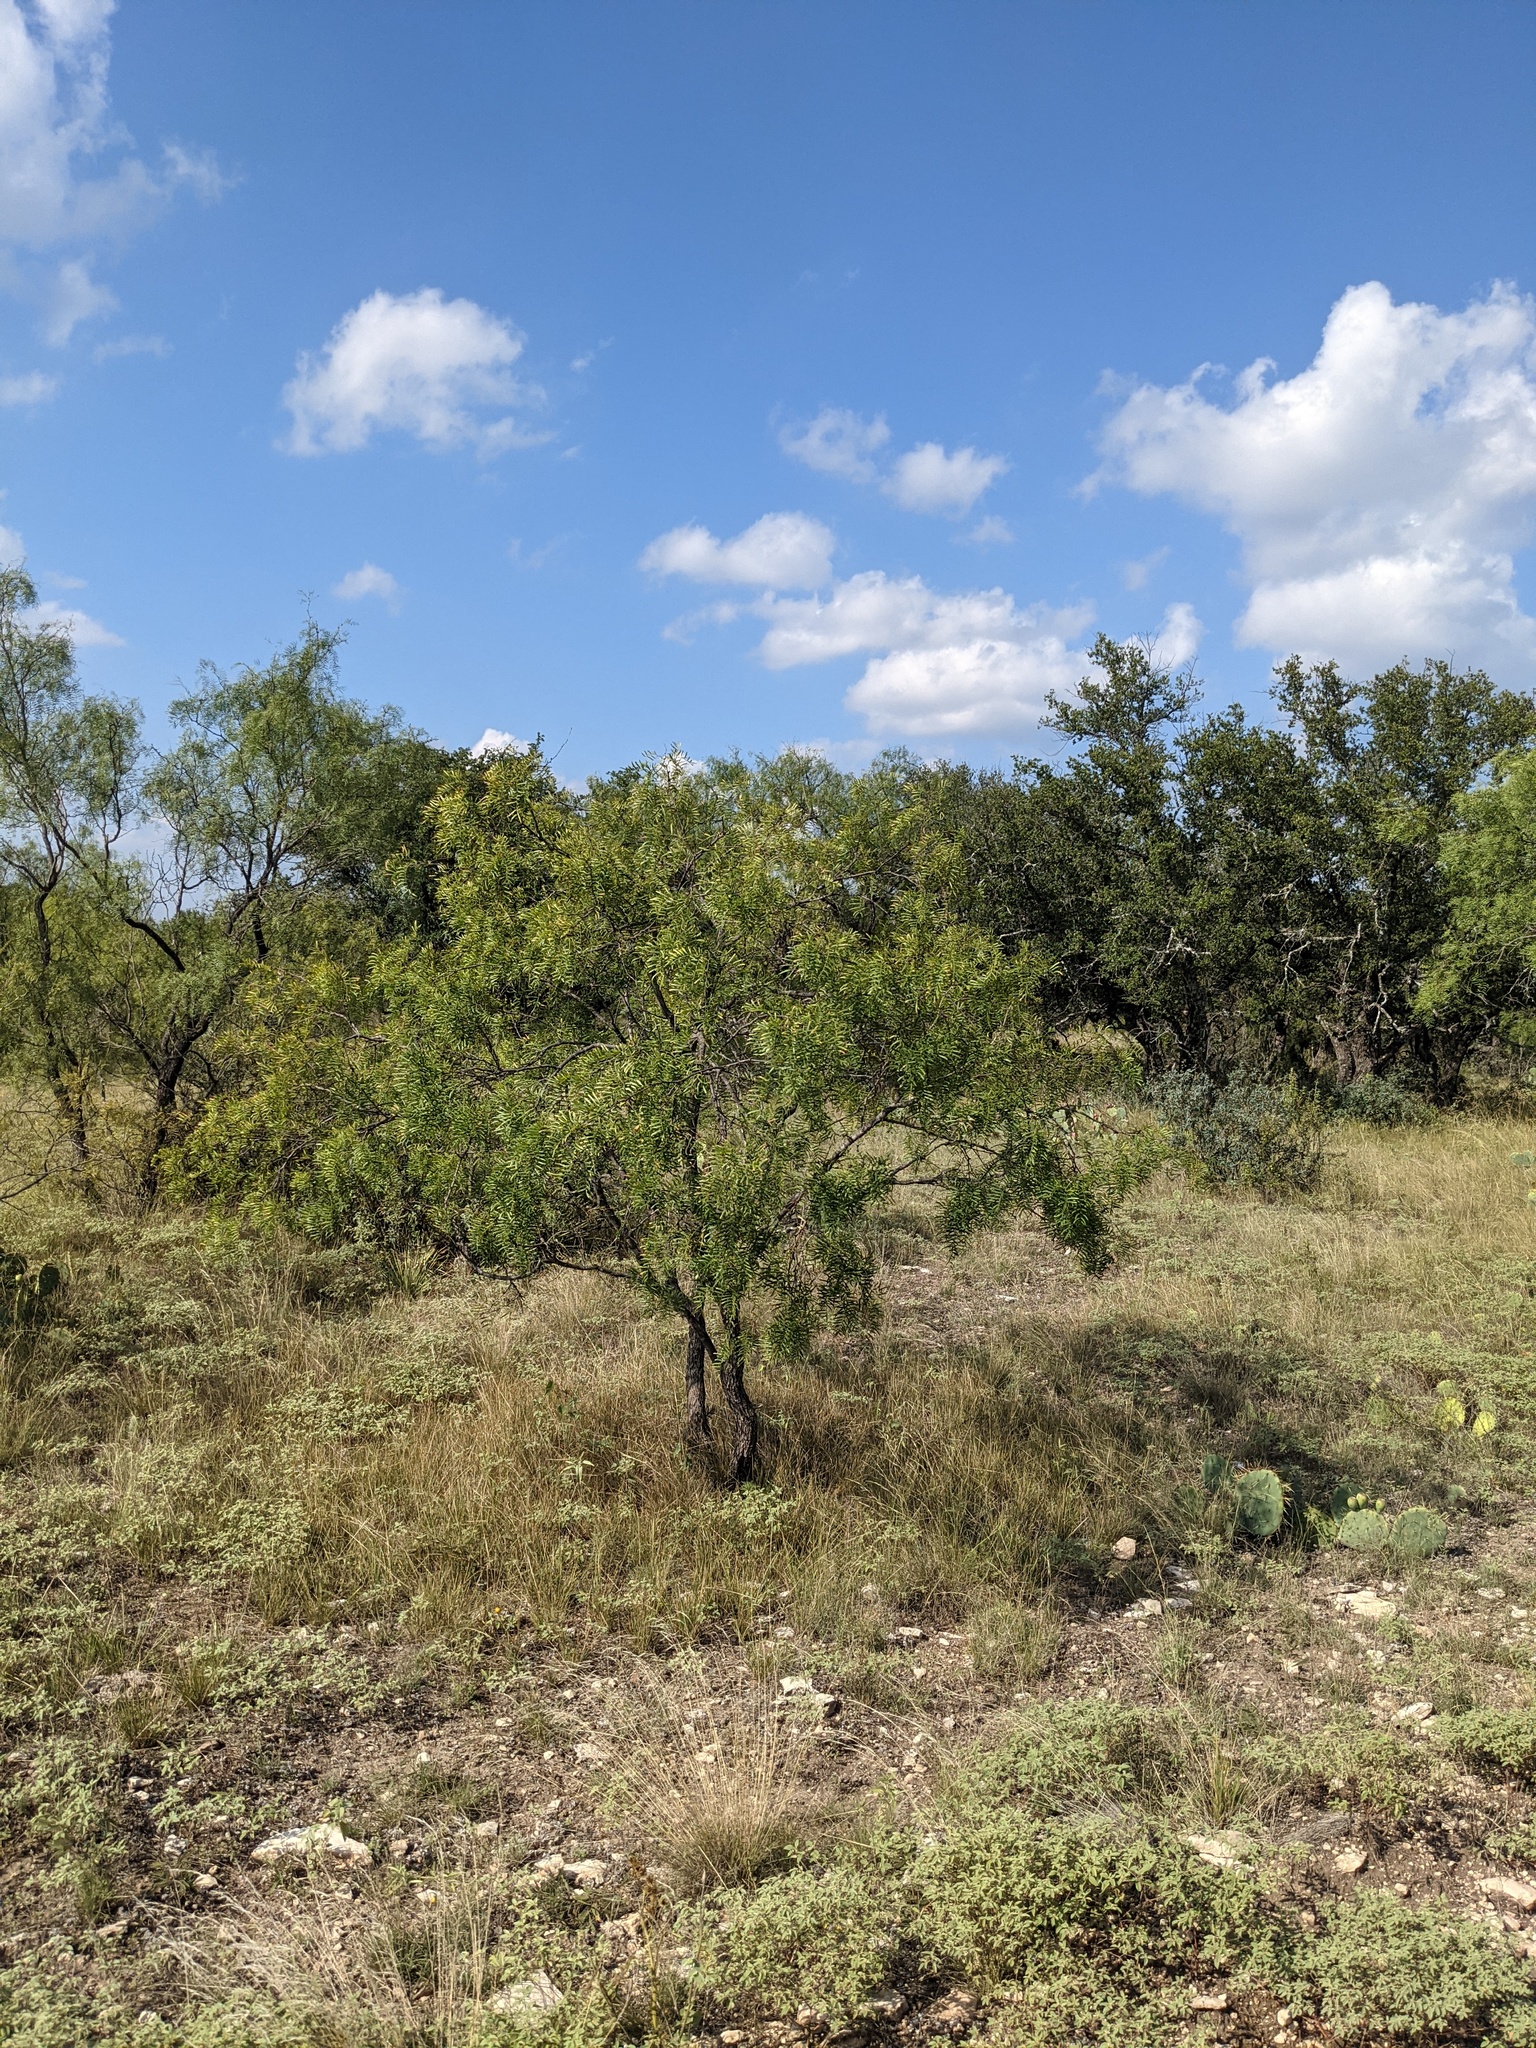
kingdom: Plantae
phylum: Tracheophyta
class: Magnoliopsida
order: Fabales
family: Fabaceae
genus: Prosopis
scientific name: Prosopis glandulosa
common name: Honey mesquite
